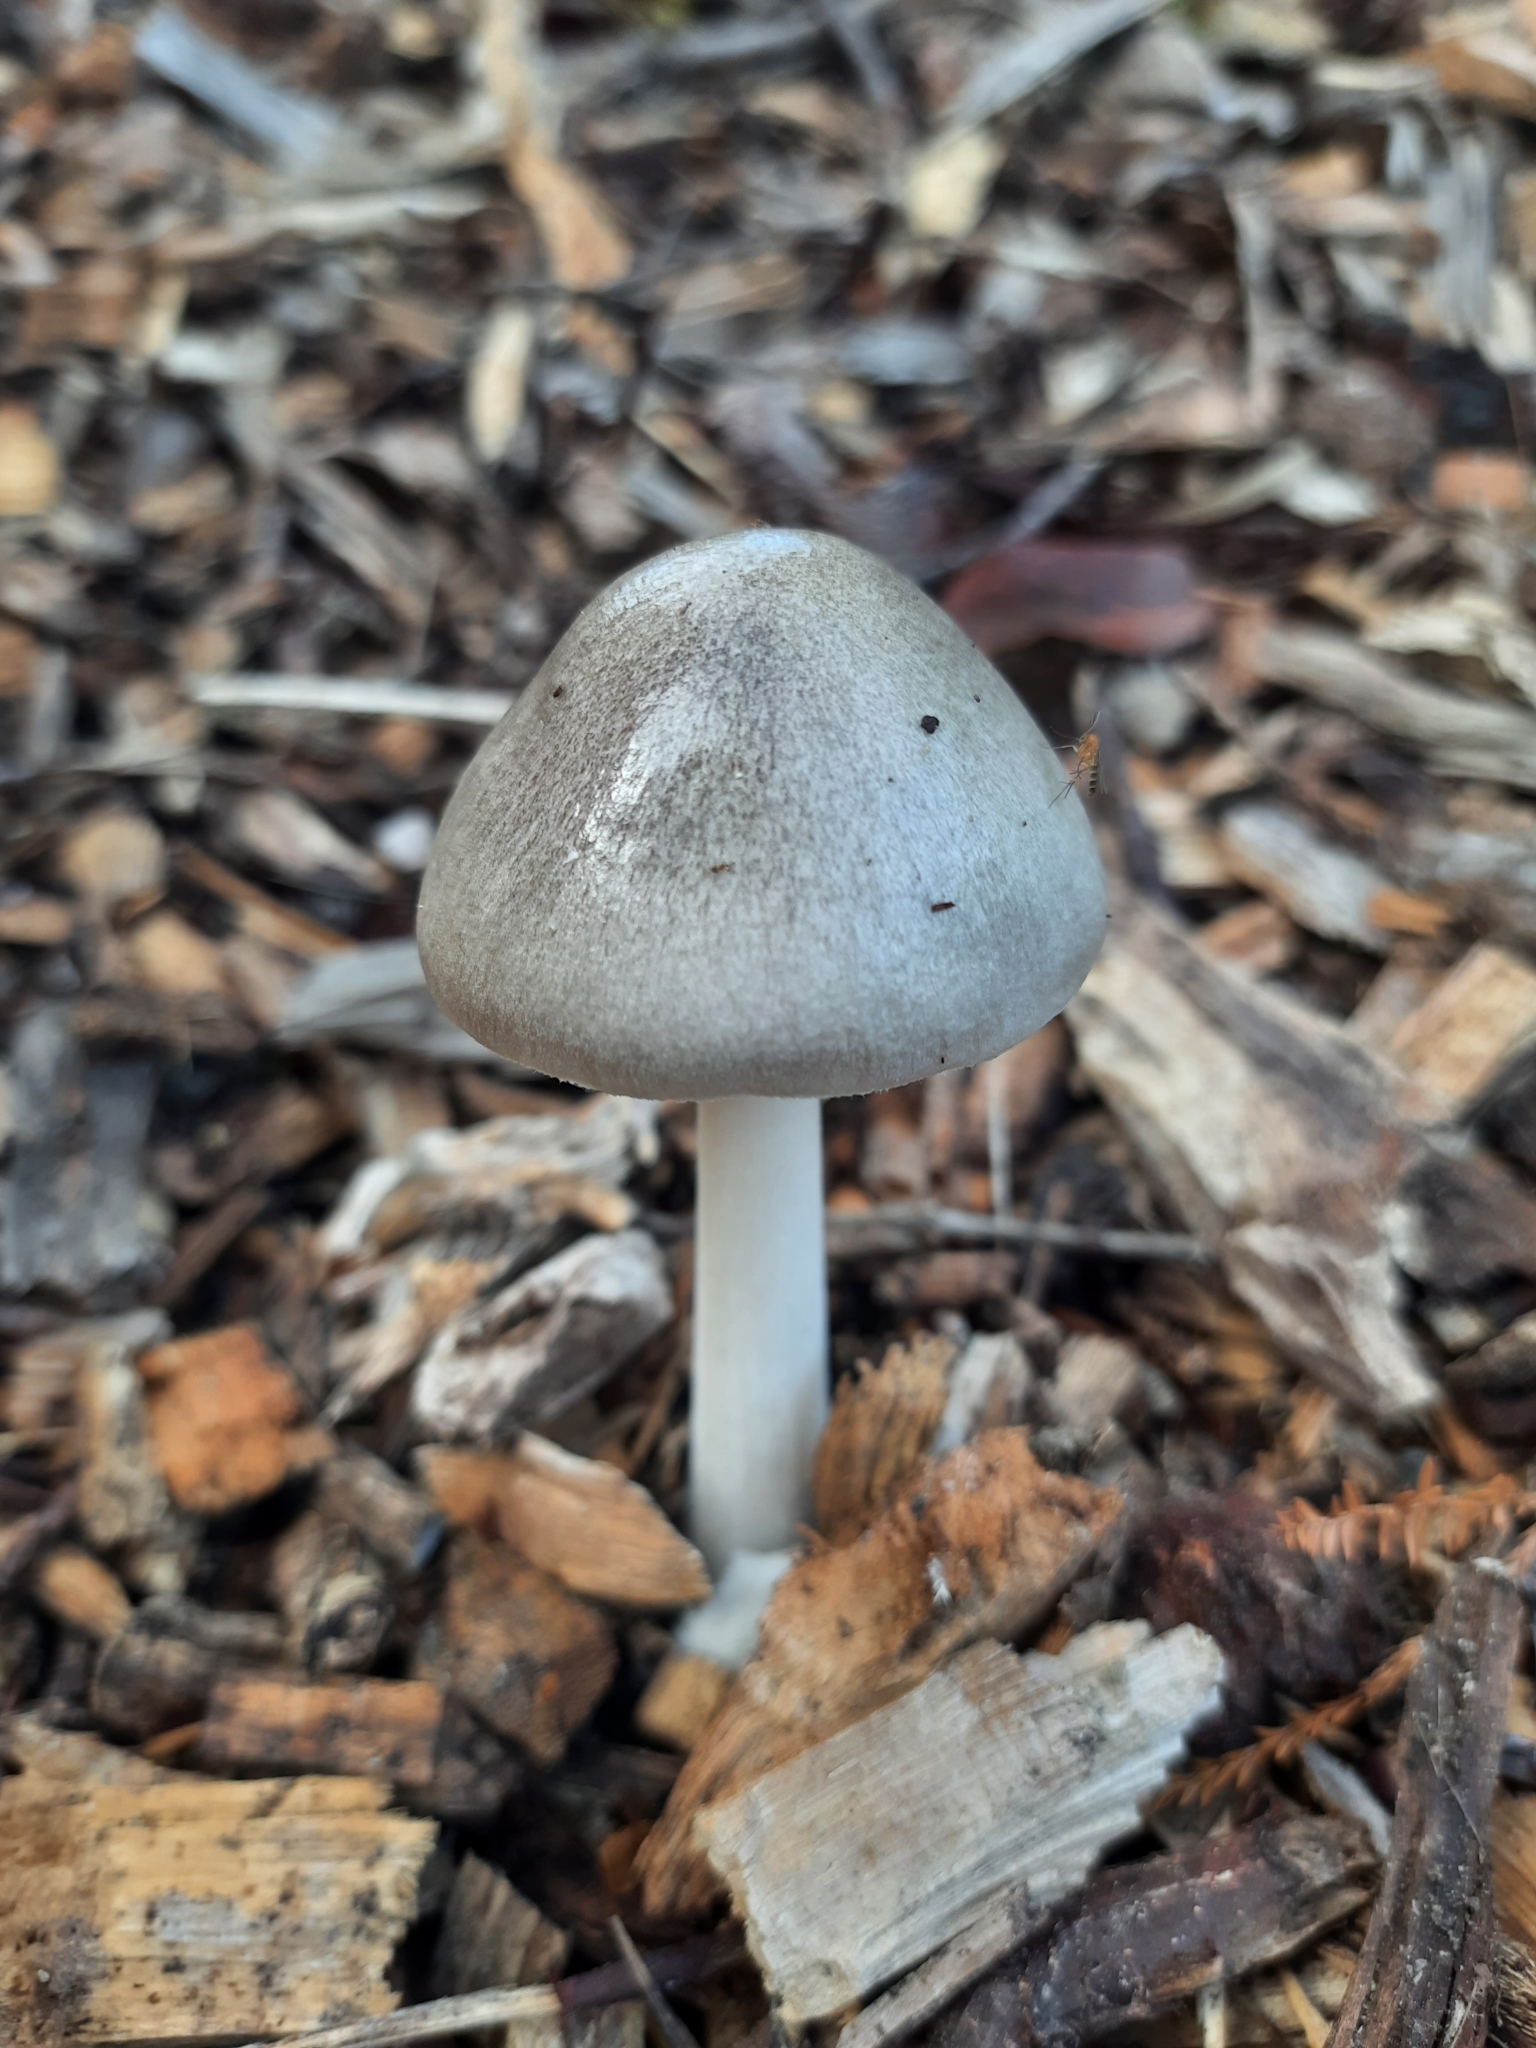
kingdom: Fungi
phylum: Basidiomycota
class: Agaricomycetes
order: Agaricales
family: Pluteaceae
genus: Volvopluteus
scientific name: Volvopluteus gloiocephalus
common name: Stubble rosegill
